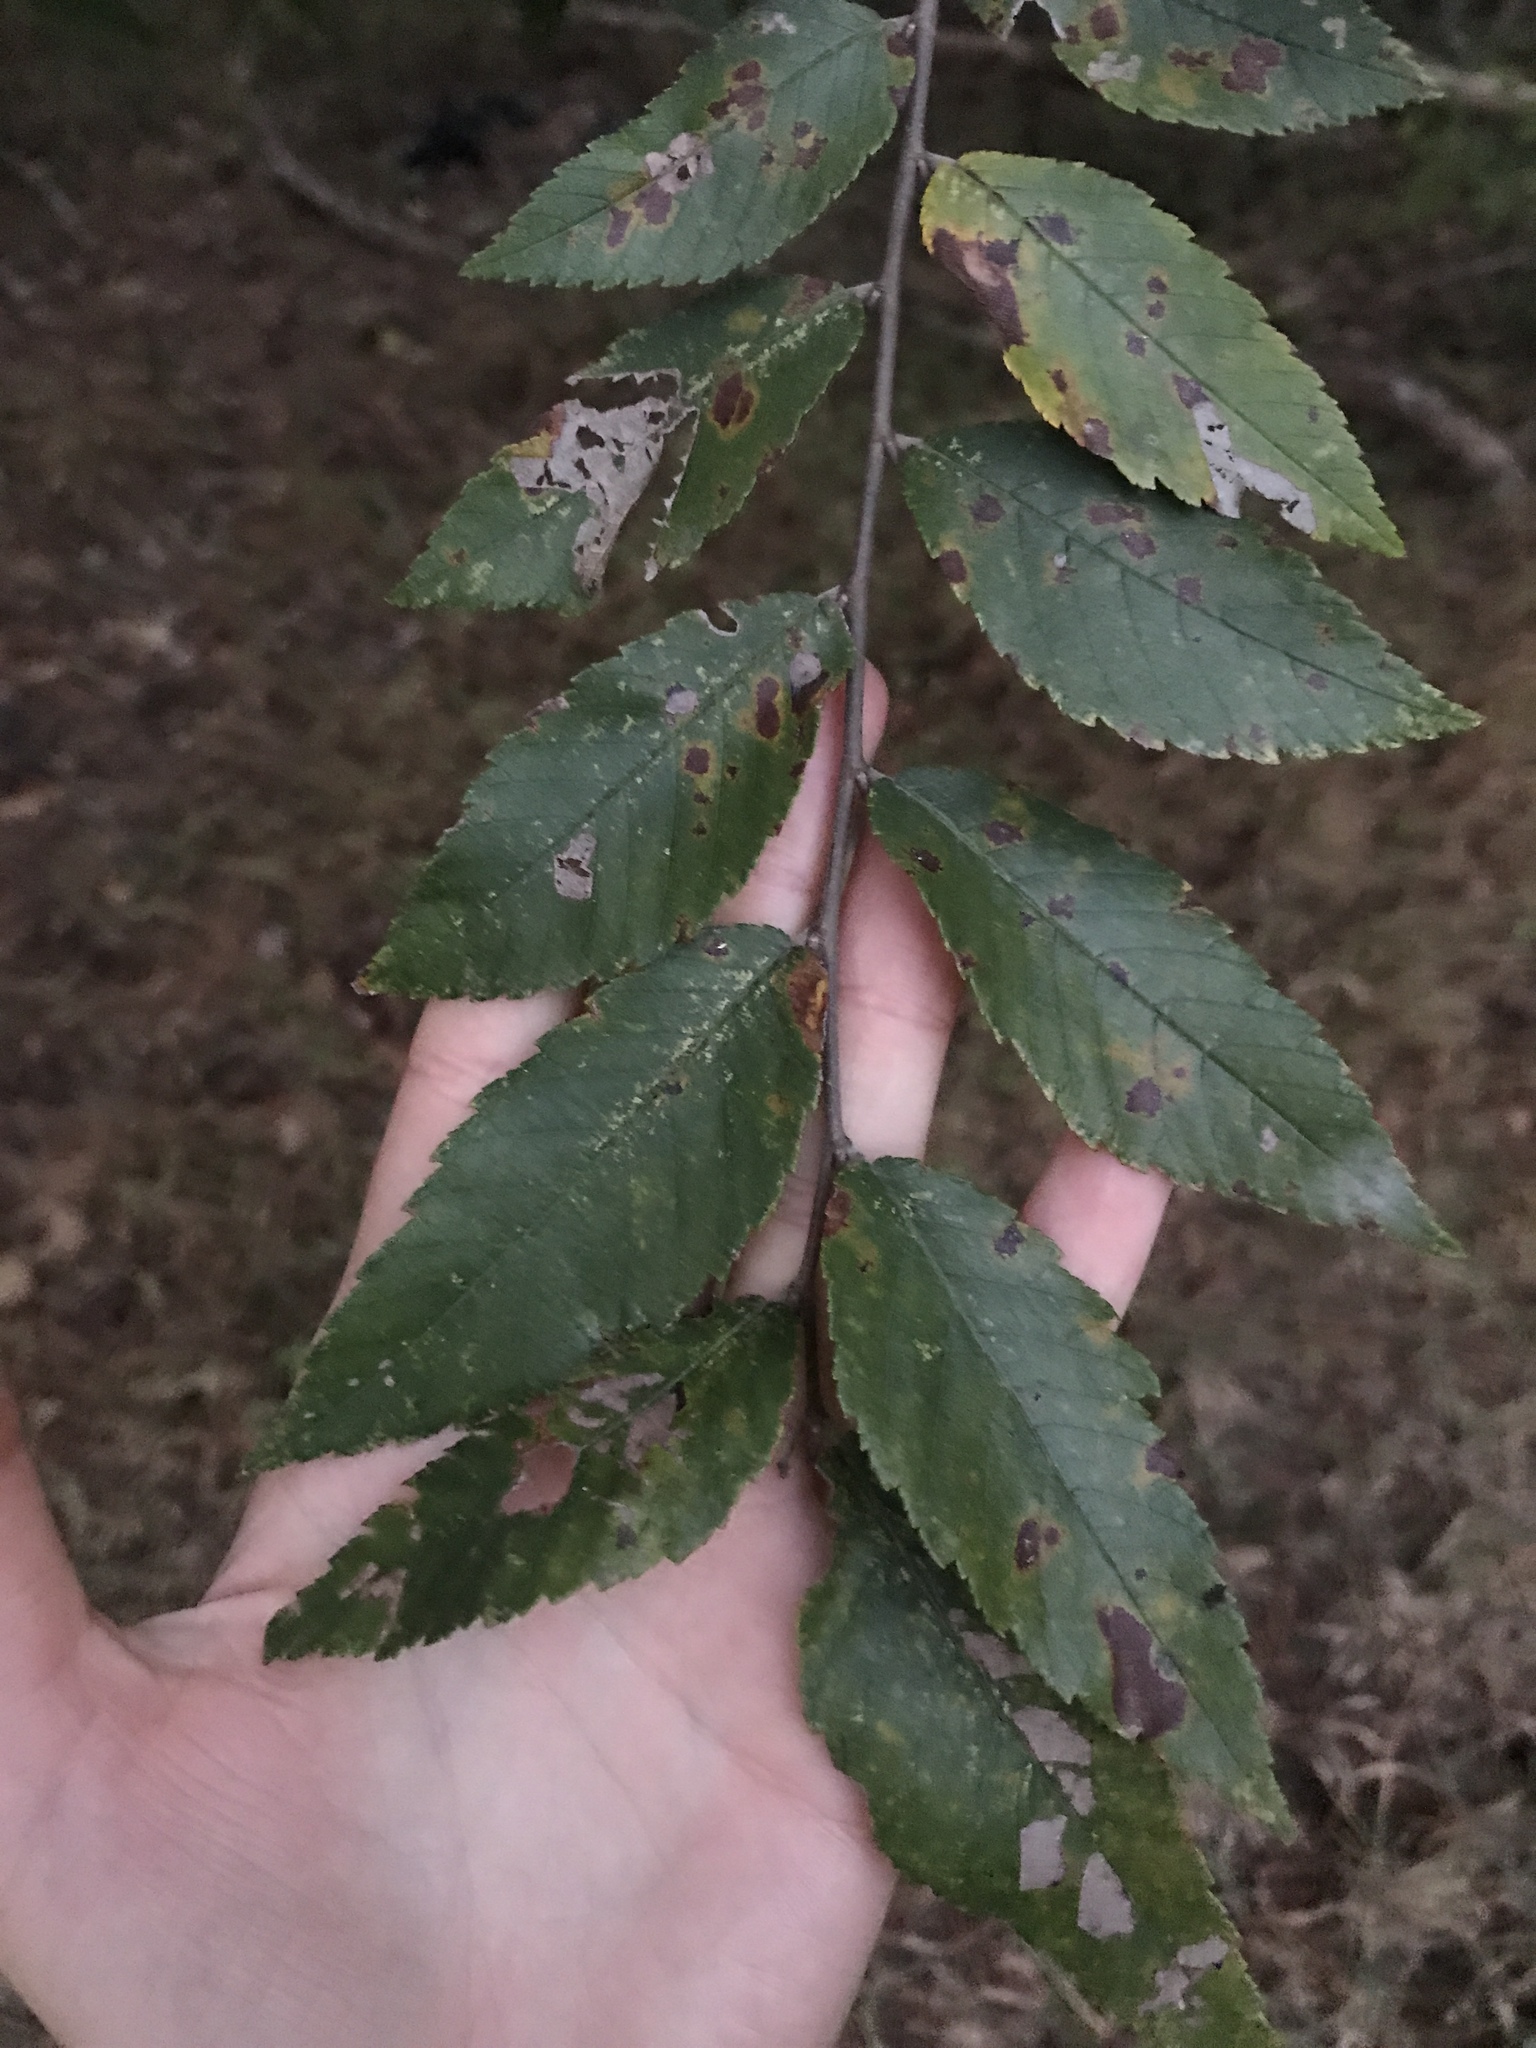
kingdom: Plantae
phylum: Tracheophyta
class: Magnoliopsida
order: Rosales
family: Ulmaceae
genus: Ulmus
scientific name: Ulmus alata
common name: Winged elm
